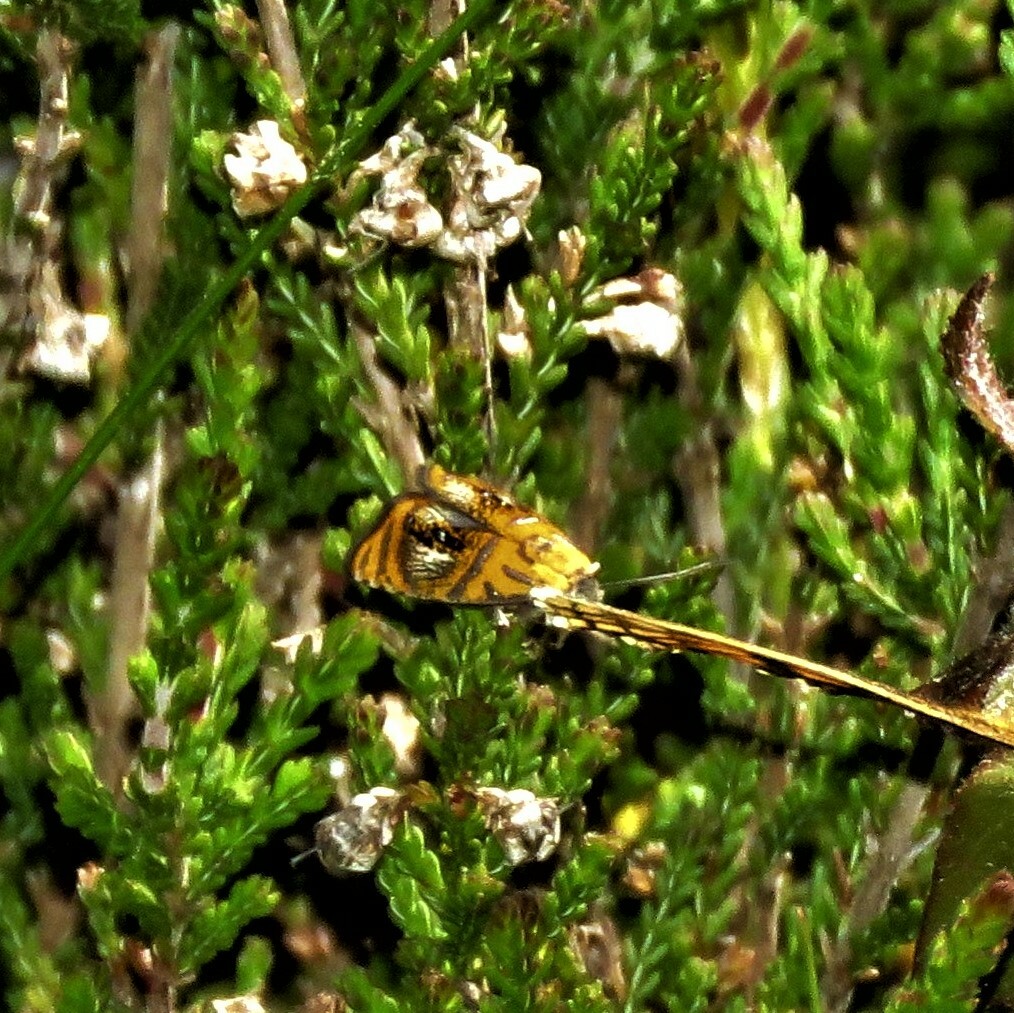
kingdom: Animalia
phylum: Arthropoda
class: Insecta
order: Lepidoptera
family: Tortricidae
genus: Olethreutes
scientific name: Olethreutes arcuella
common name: Arched marble
